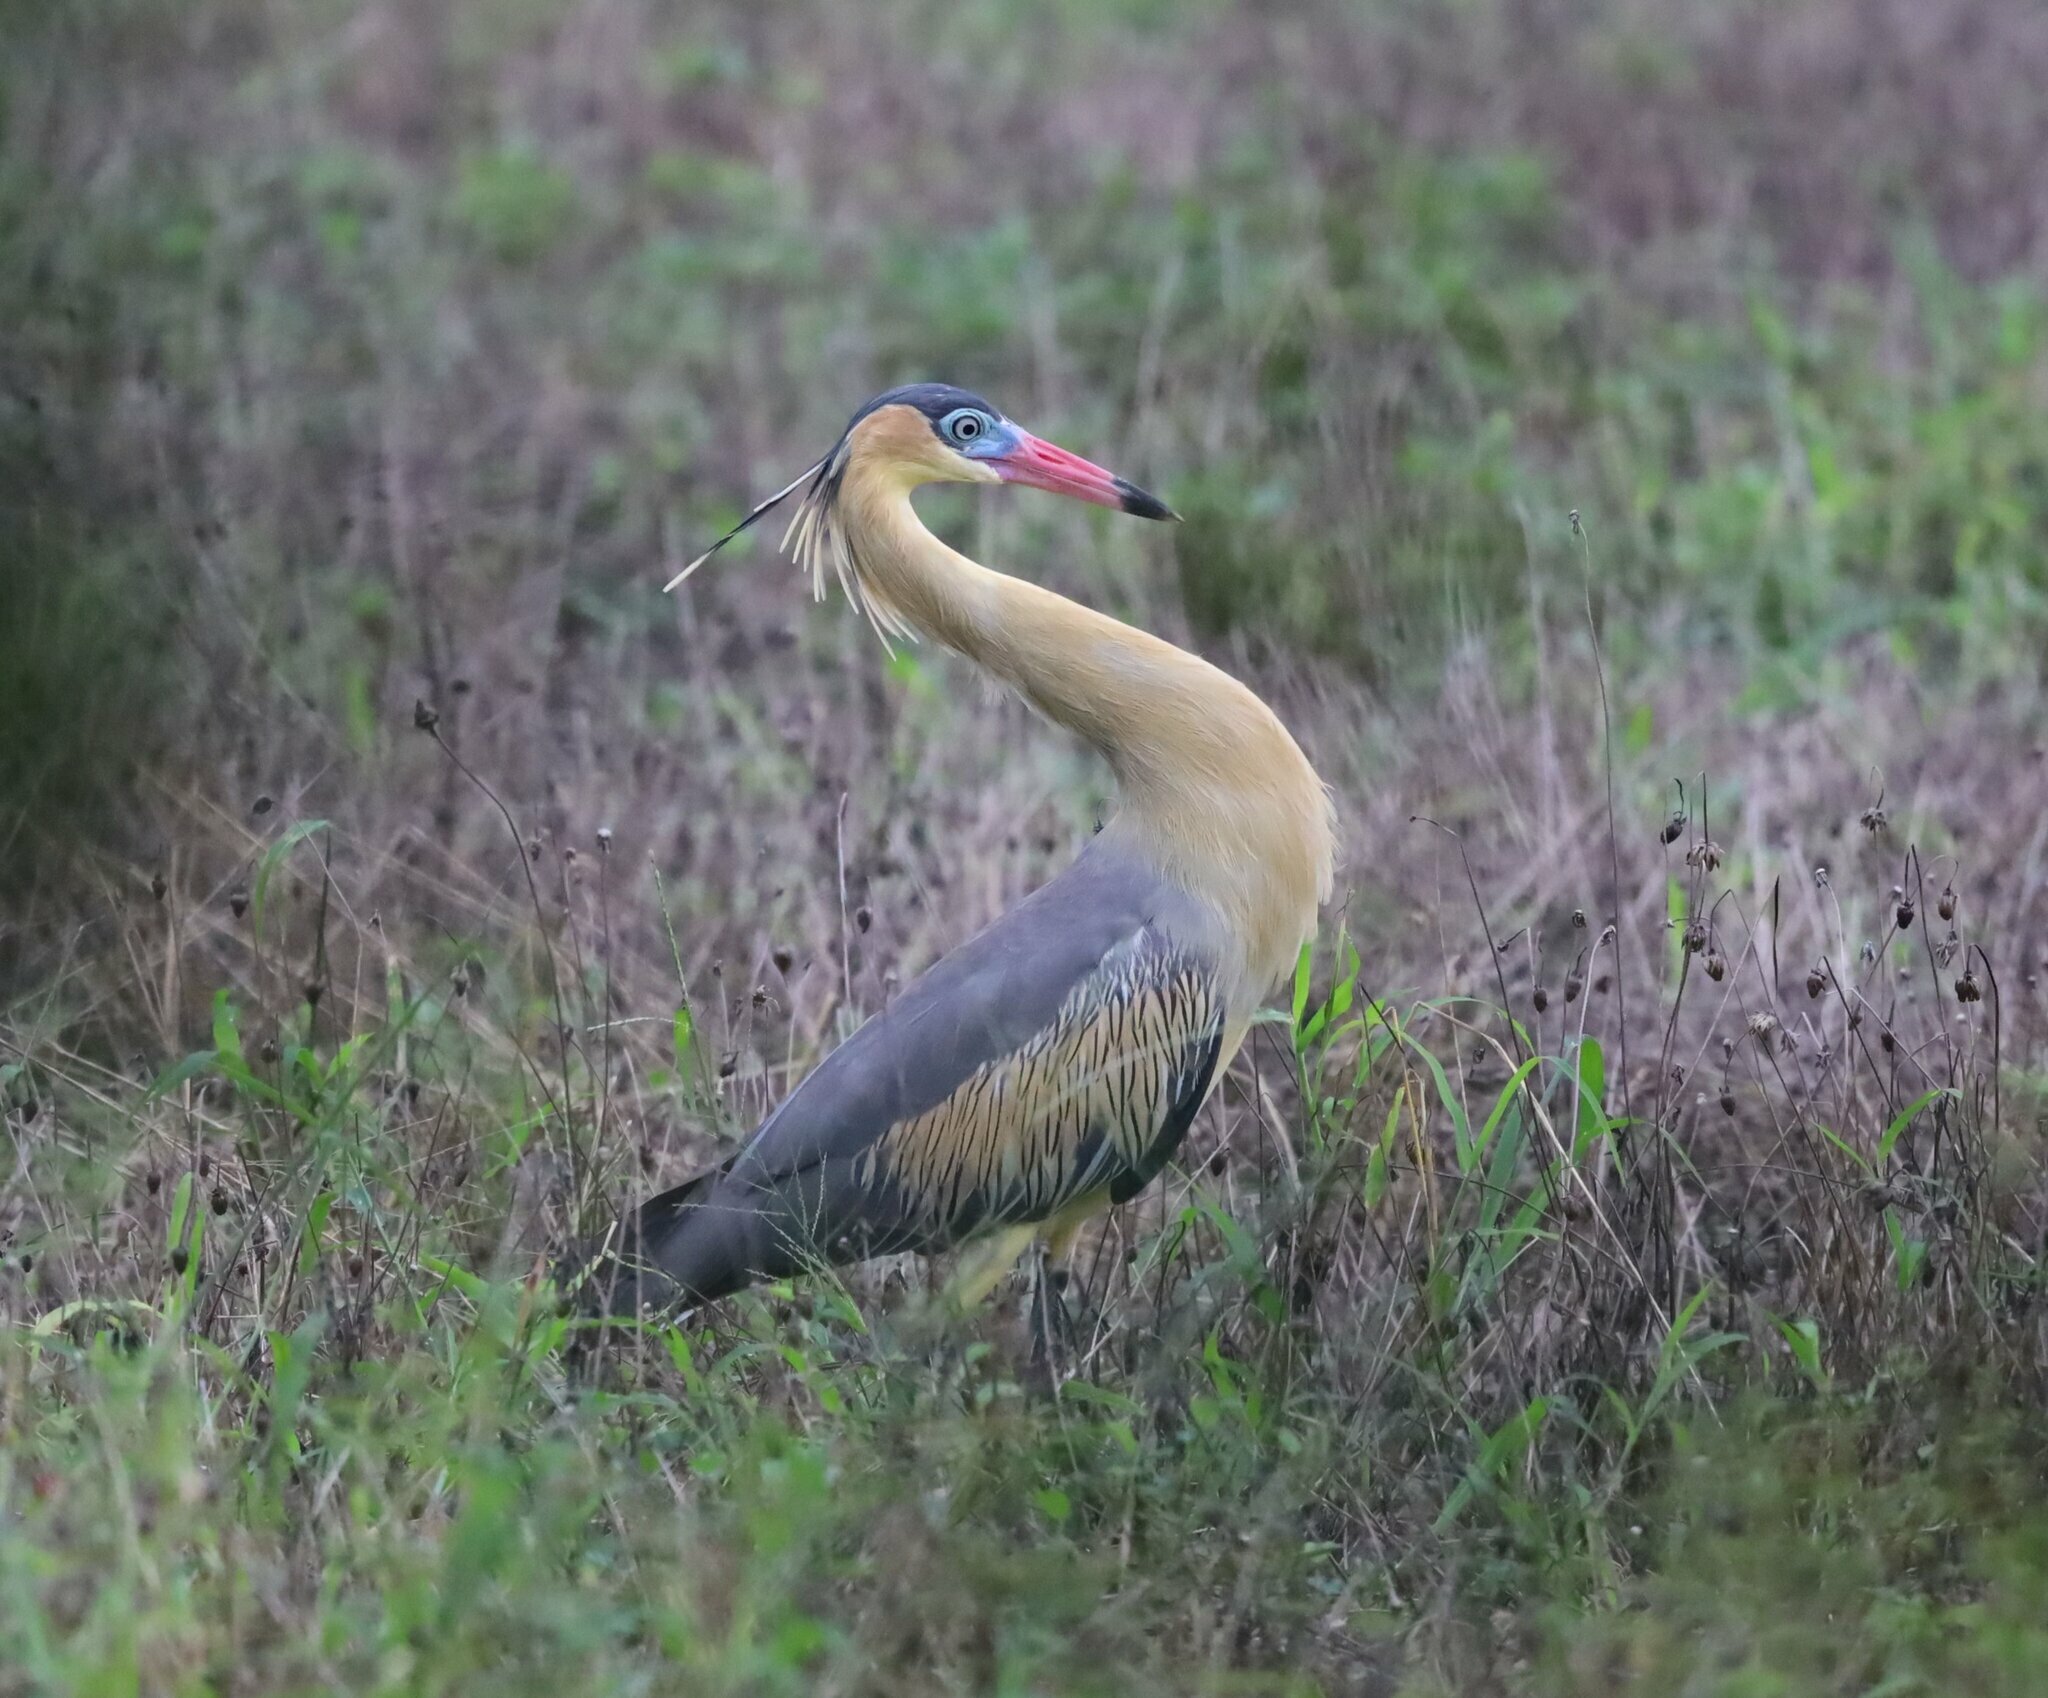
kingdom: Animalia
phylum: Chordata
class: Aves
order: Pelecaniformes
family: Ardeidae
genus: Syrigma
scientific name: Syrigma sibilatrix
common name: Whistling heron
